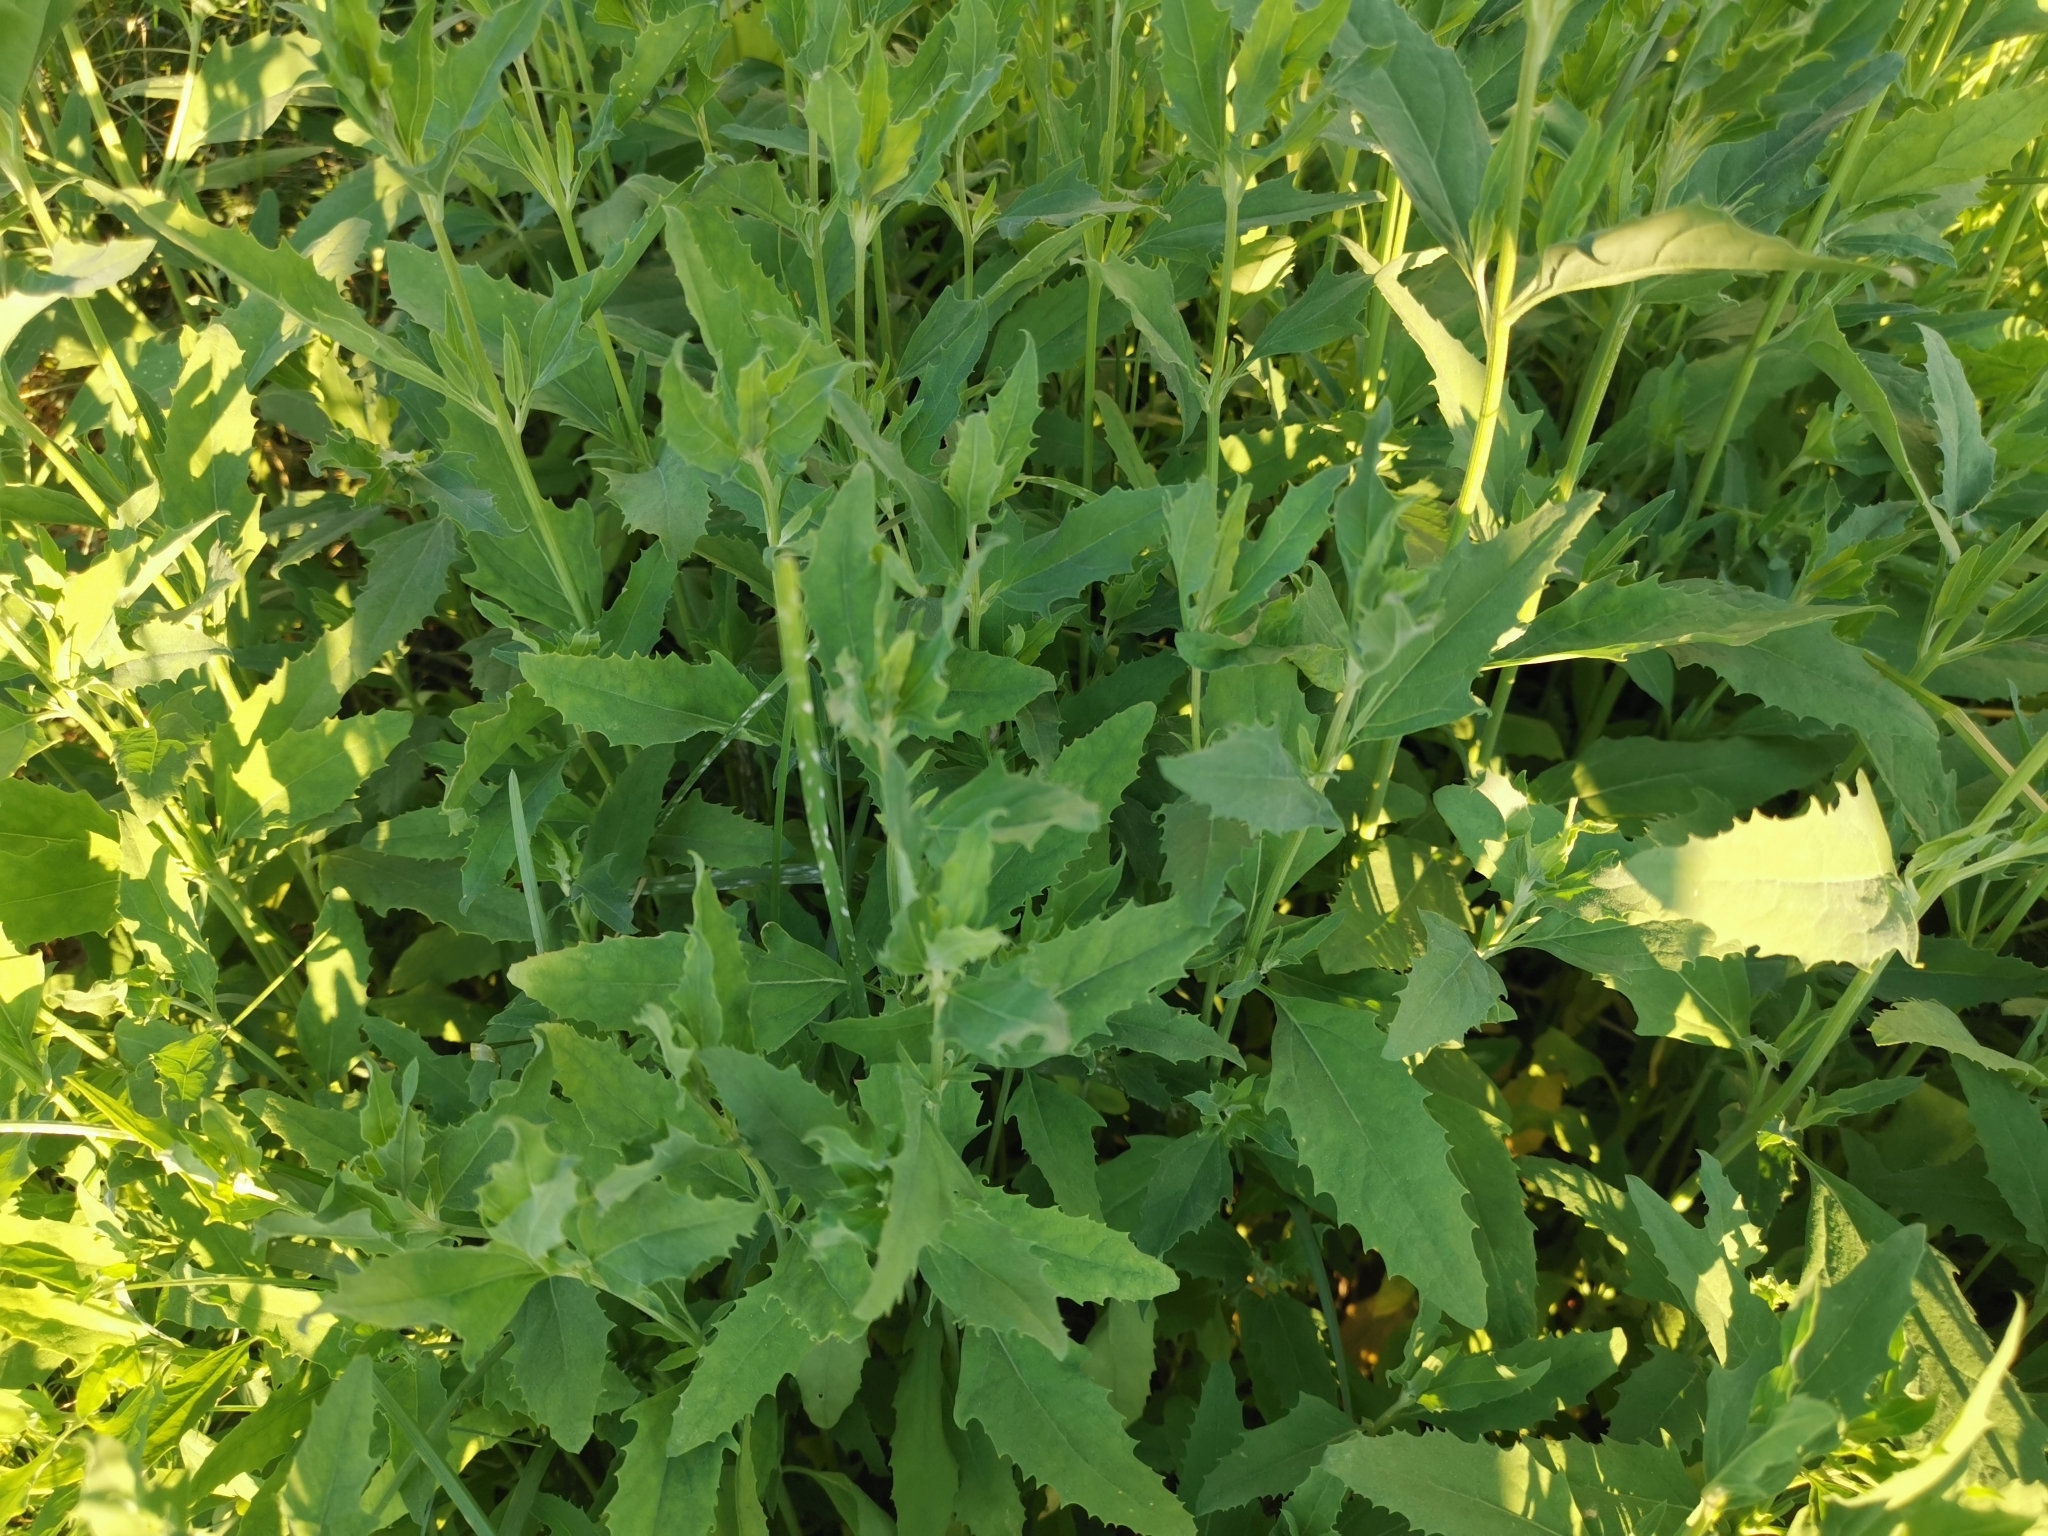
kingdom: Plantae
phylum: Tracheophyta
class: Magnoliopsida
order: Caryophyllales
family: Amaranthaceae
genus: Chenopodium
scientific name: Chenopodium album
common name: Fat-hen
